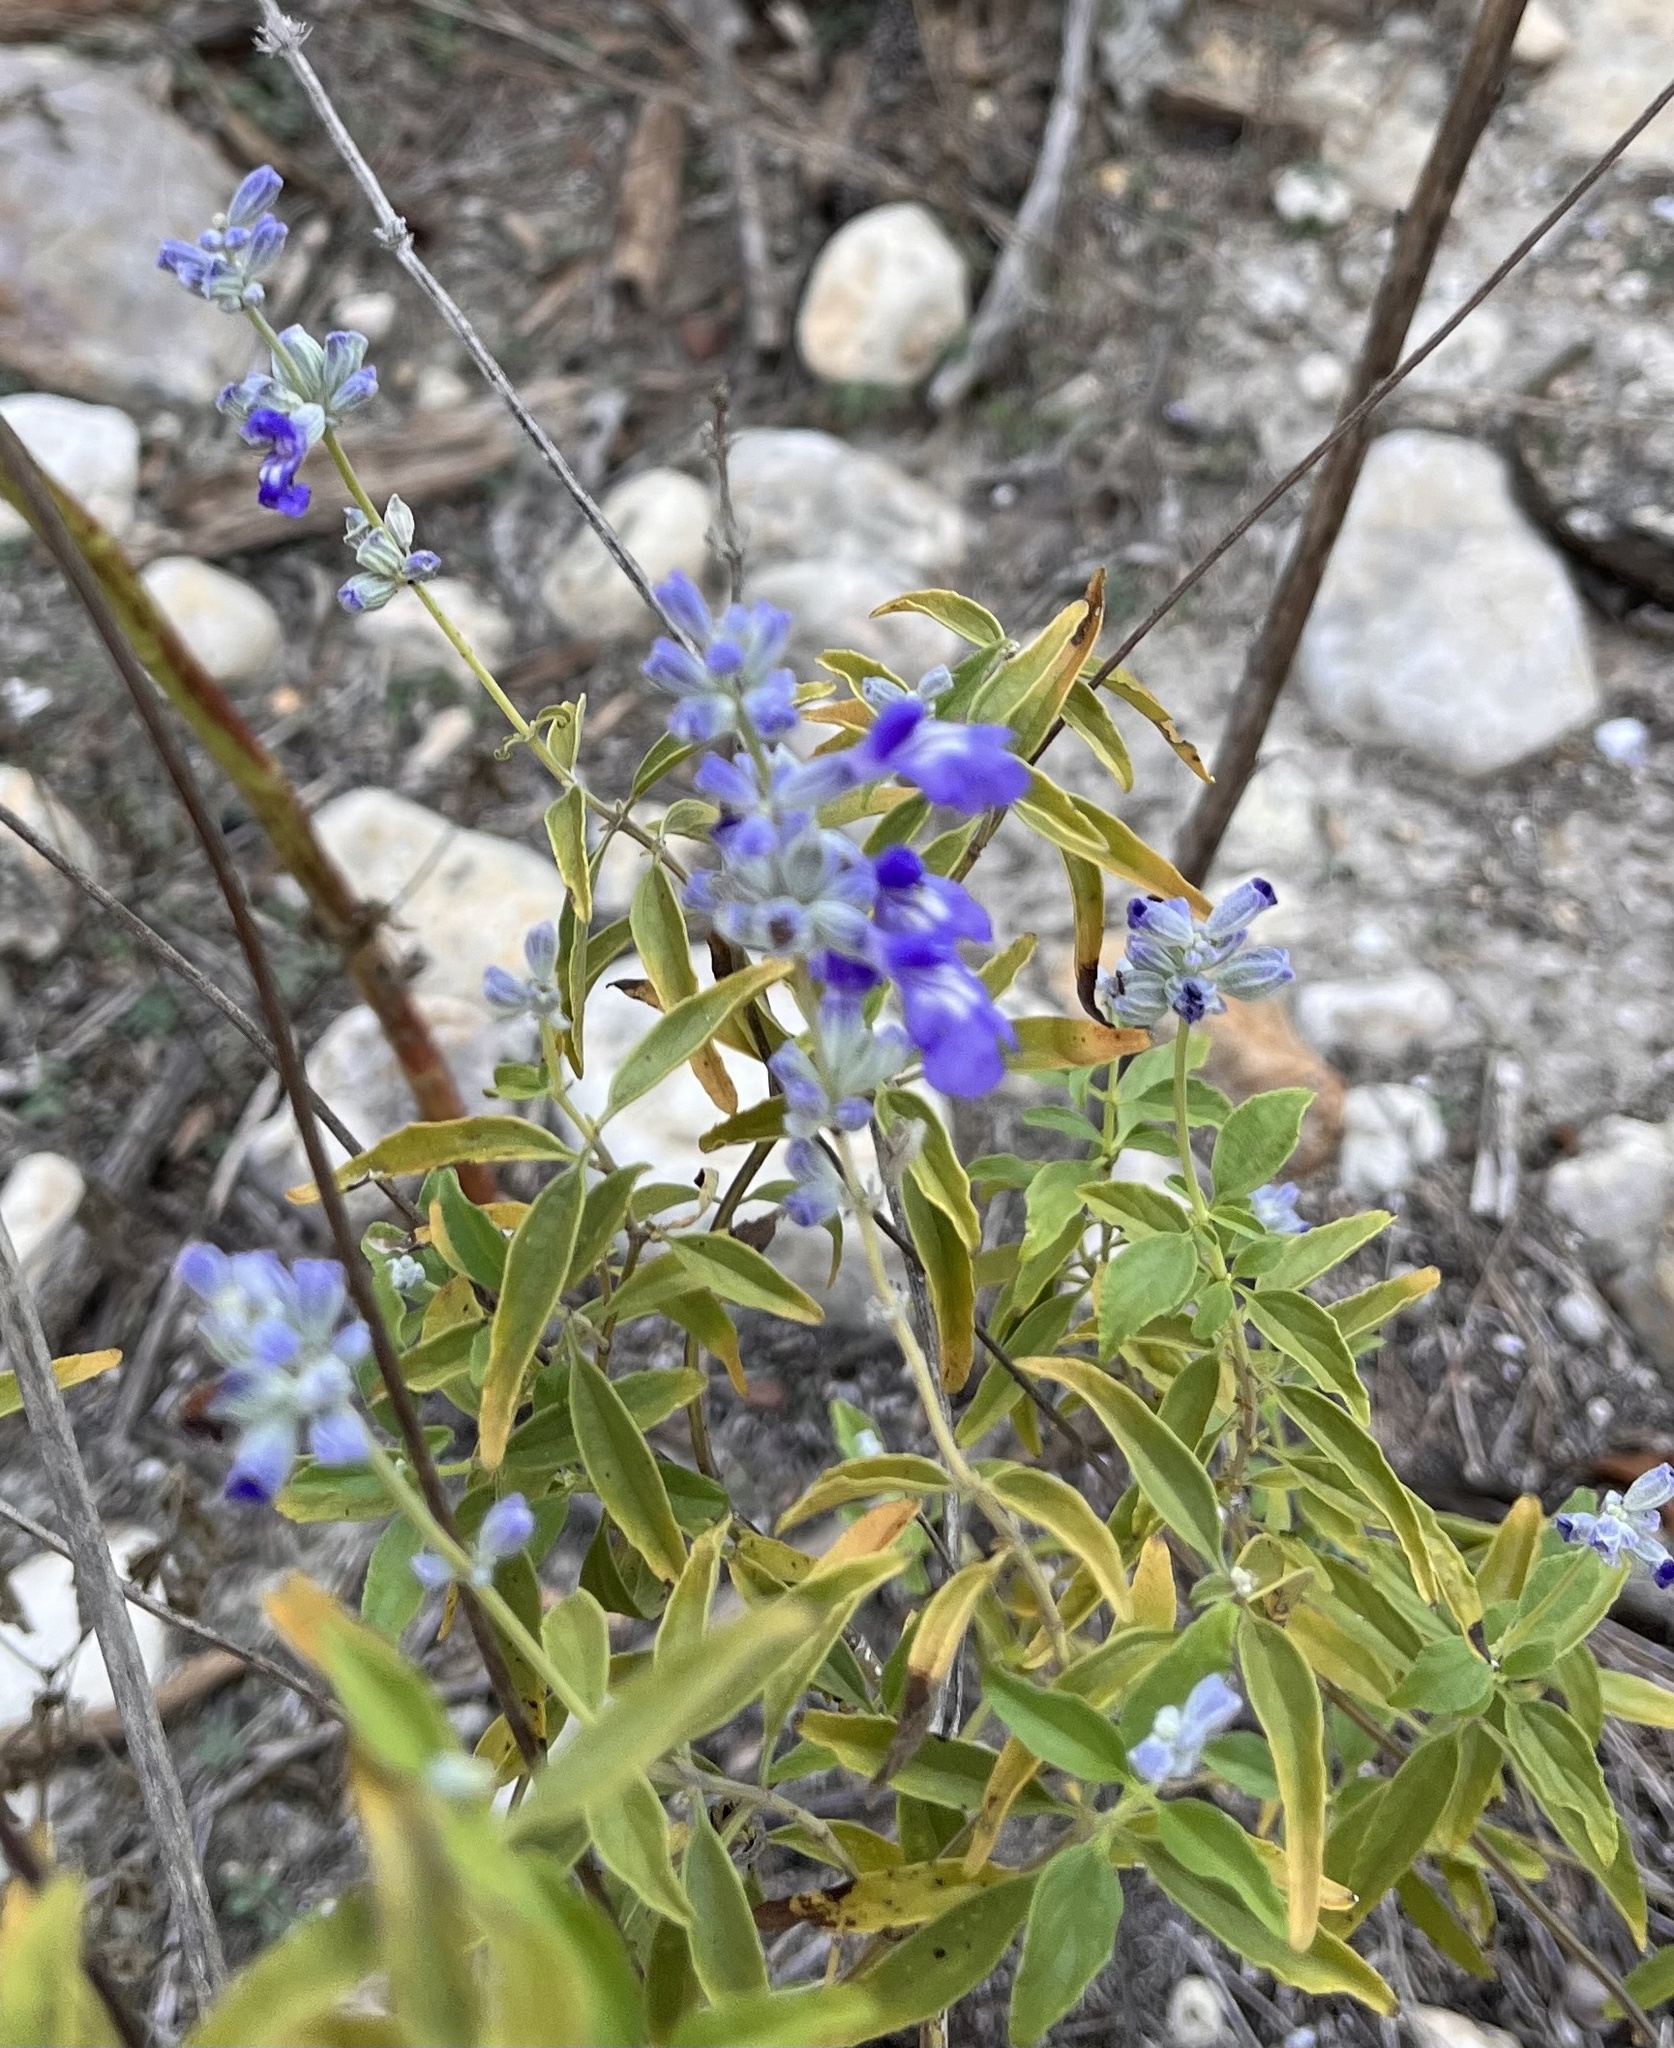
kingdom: Plantae
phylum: Tracheophyta
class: Magnoliopsida
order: Lamiales
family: Lamiaceae
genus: Salvia
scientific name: Salvia farinacea
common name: Mealy sage
